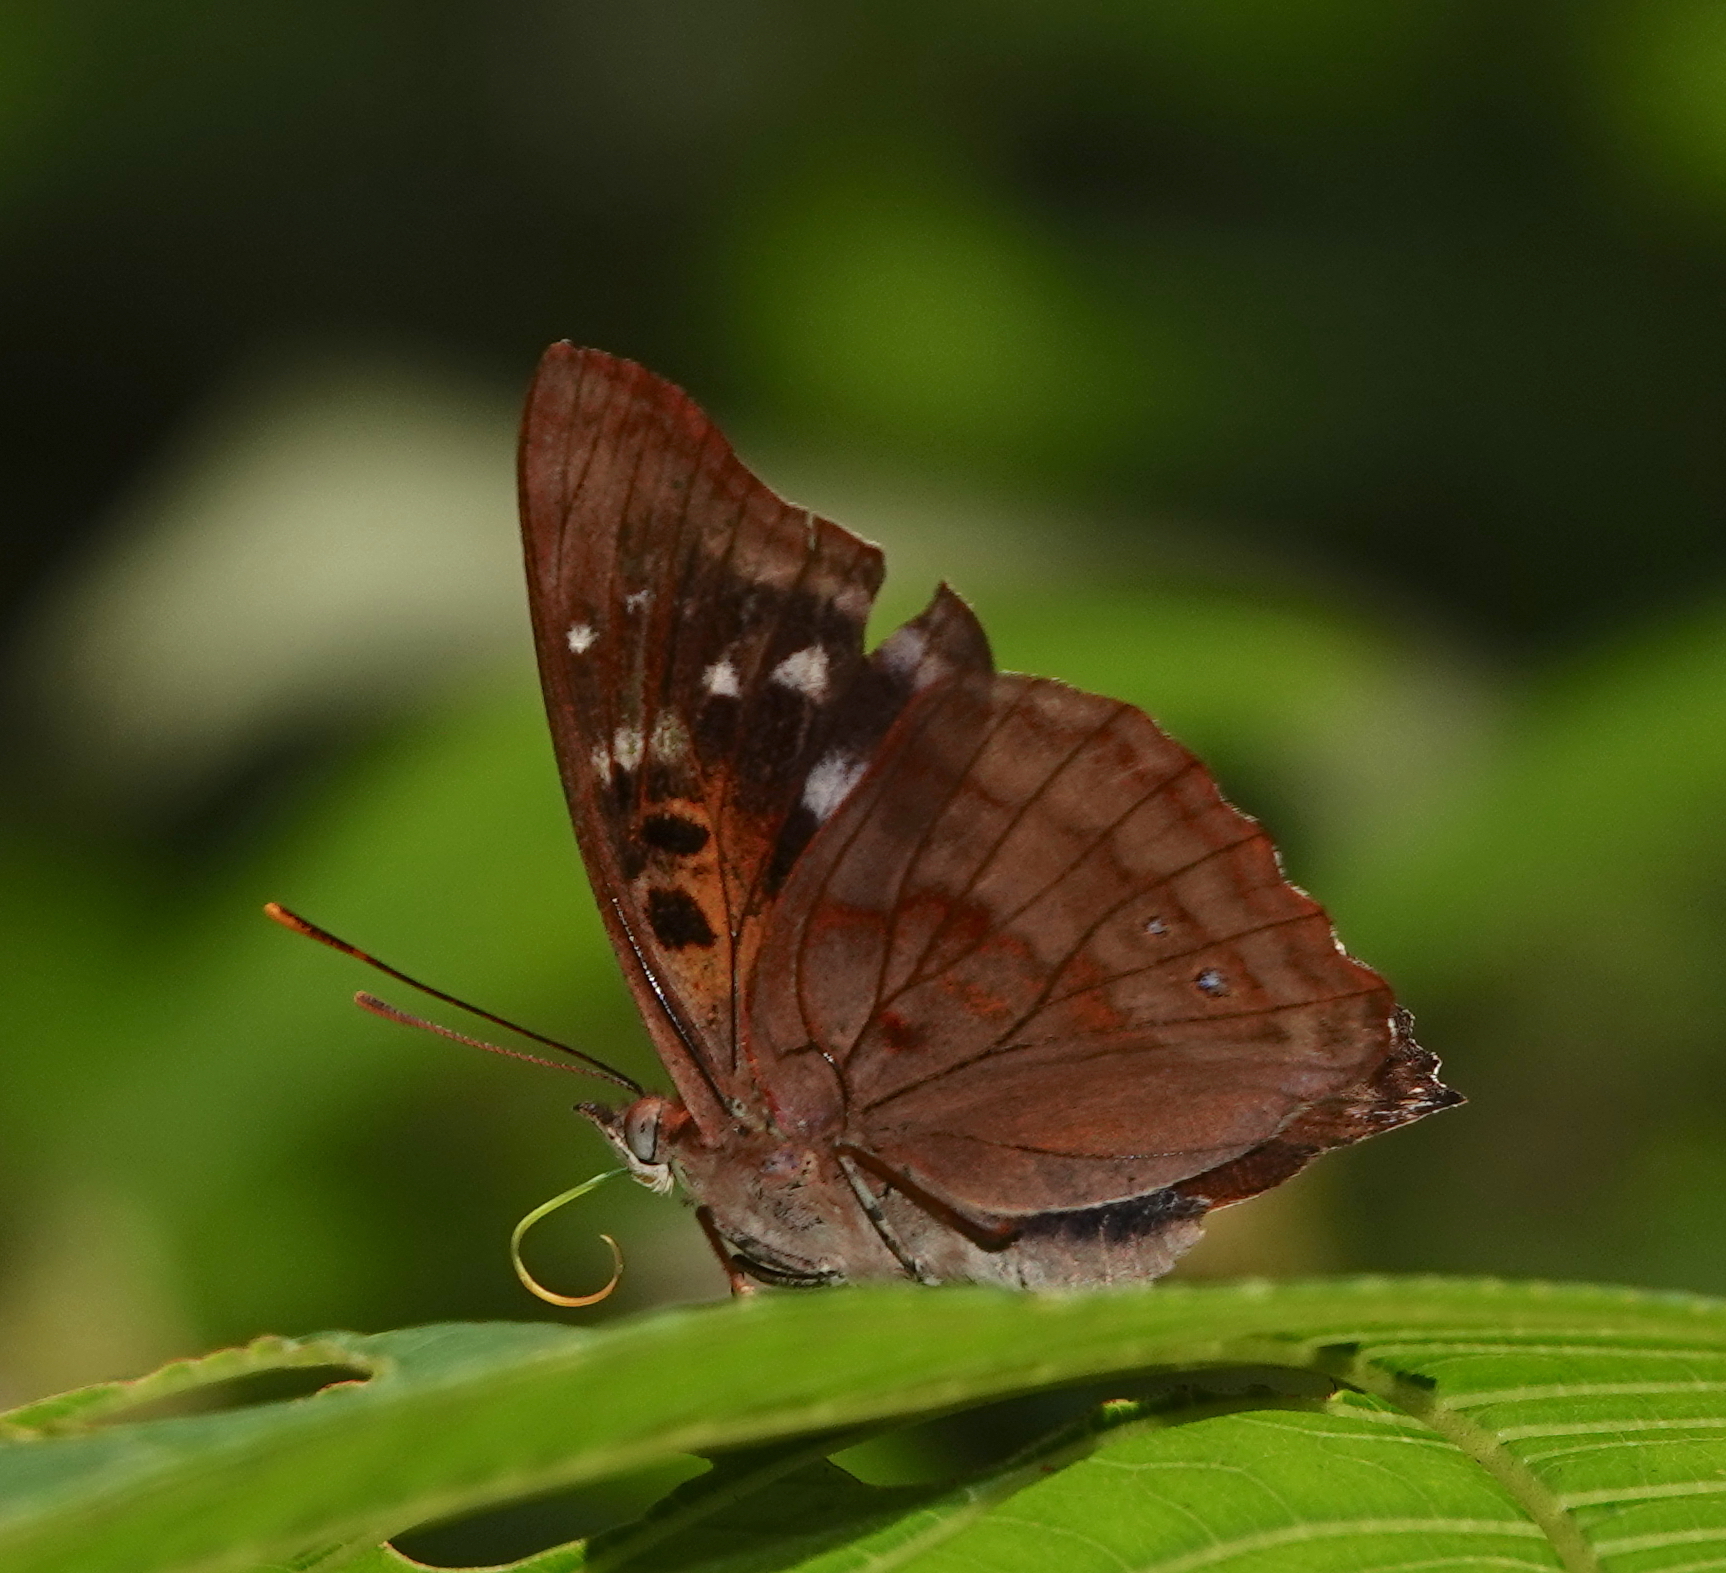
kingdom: Animalia
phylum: Arthropoda
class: Insecta
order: Lepidoptera
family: Nymphalidae
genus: Doxocopa
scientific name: Doxocopa agathina
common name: Agathina emperor
